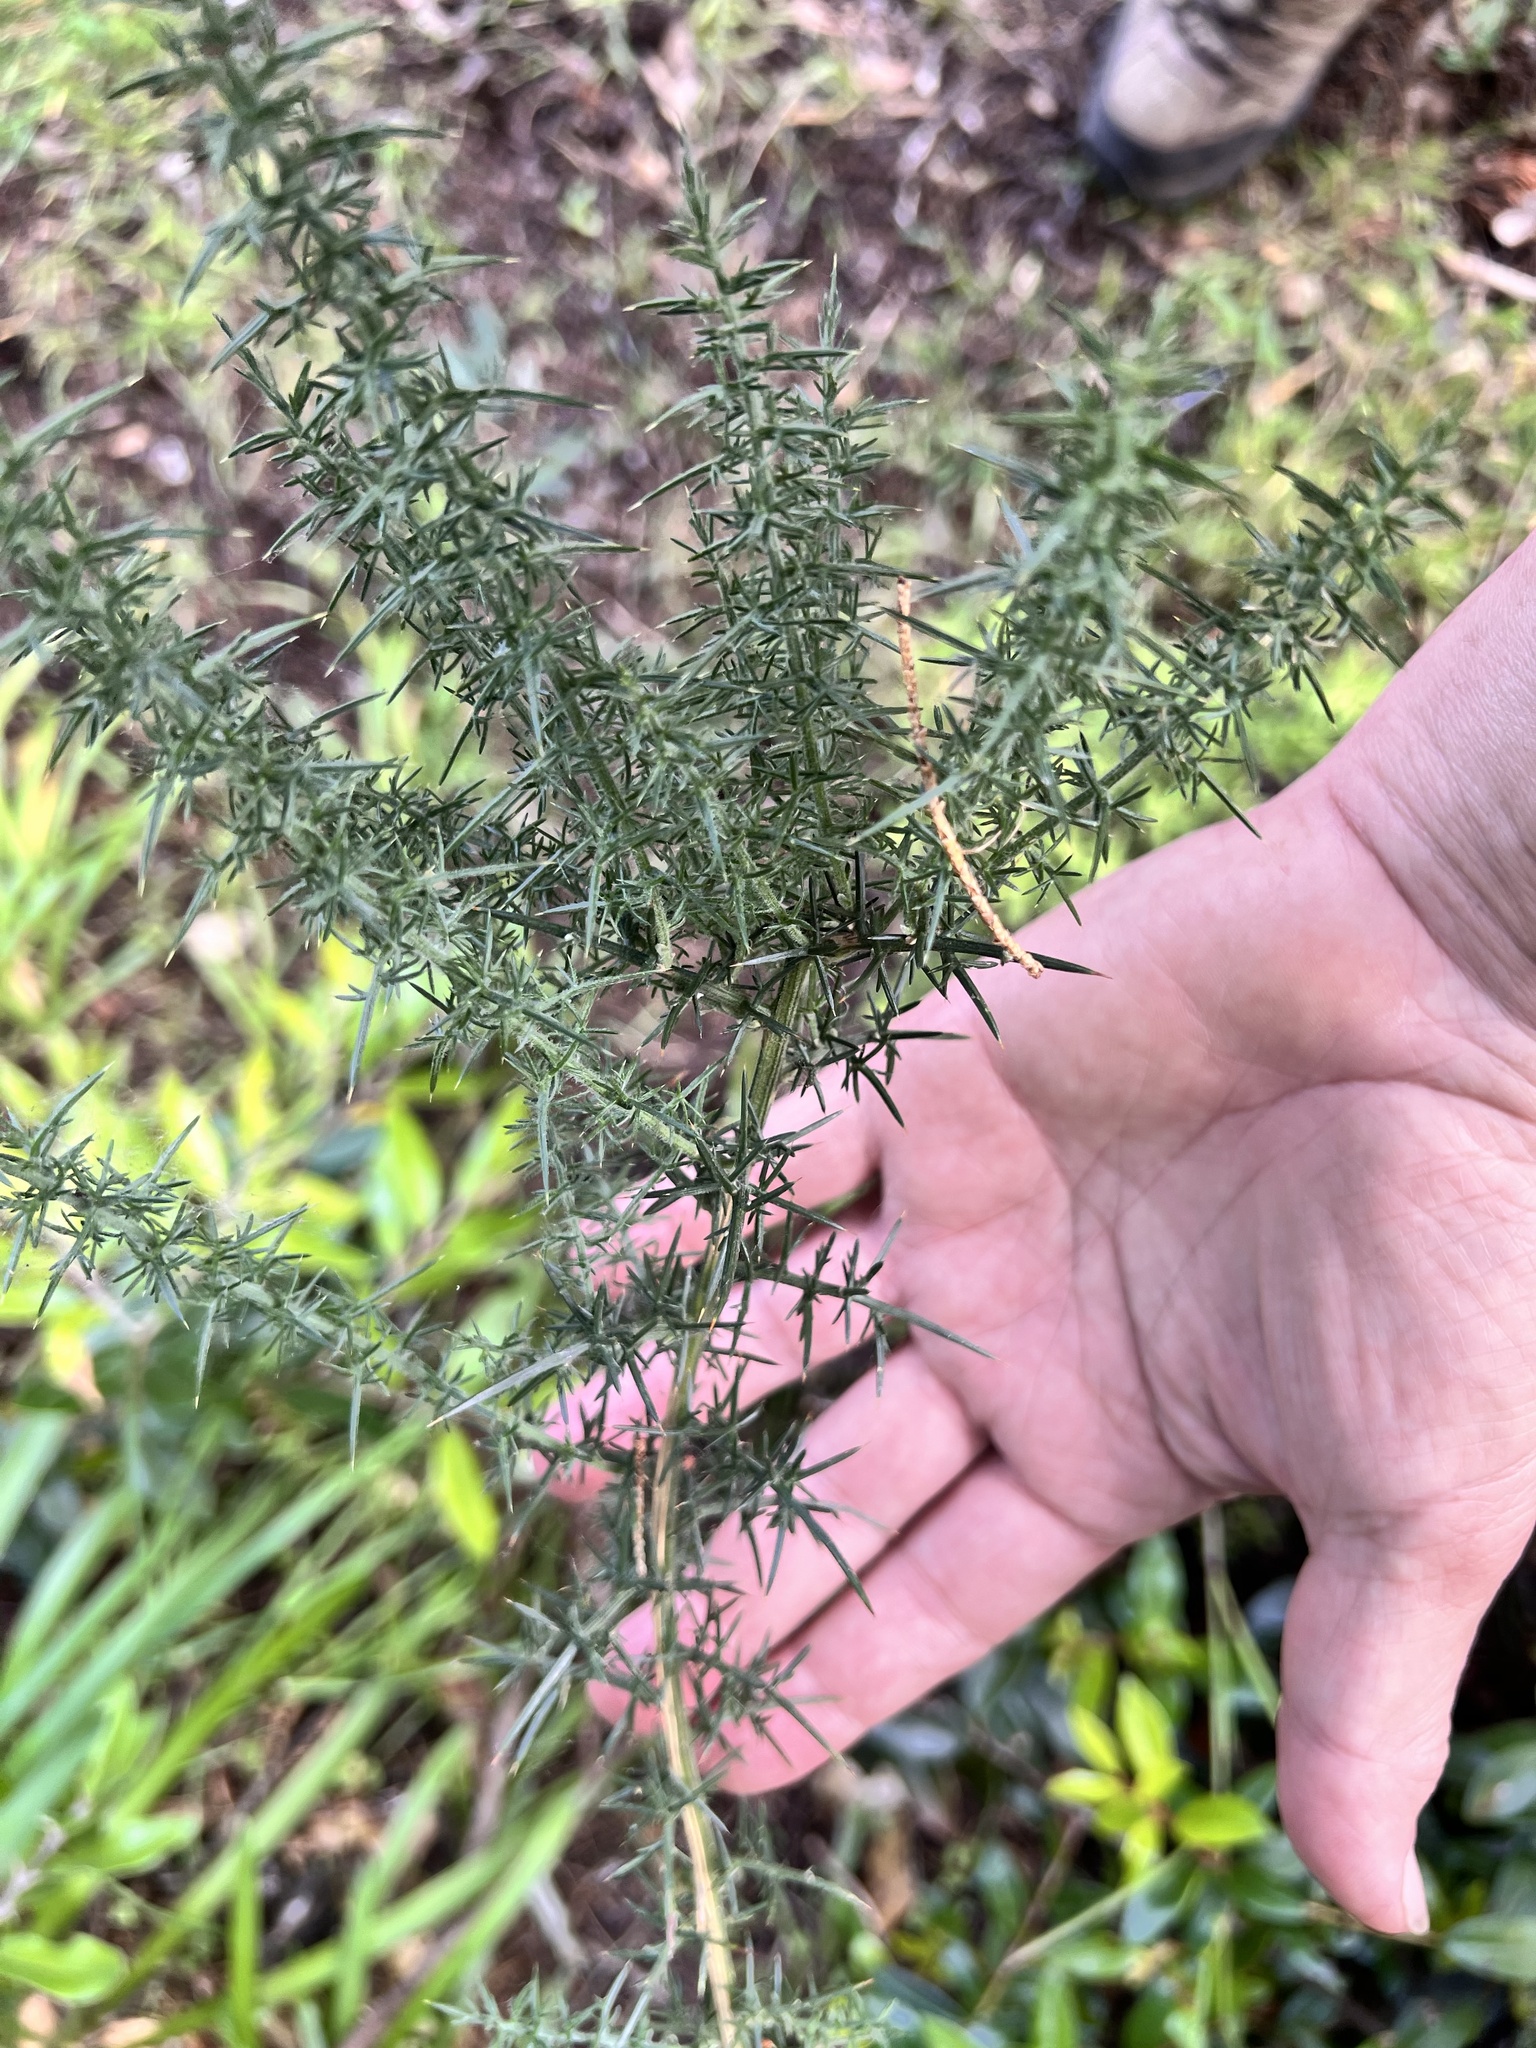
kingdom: Plantae
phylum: Tracheophyta
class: Magnoliopsida
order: Fabales
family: Fabaceae
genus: Ulex
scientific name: Ulex europaeus
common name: Common gorse
